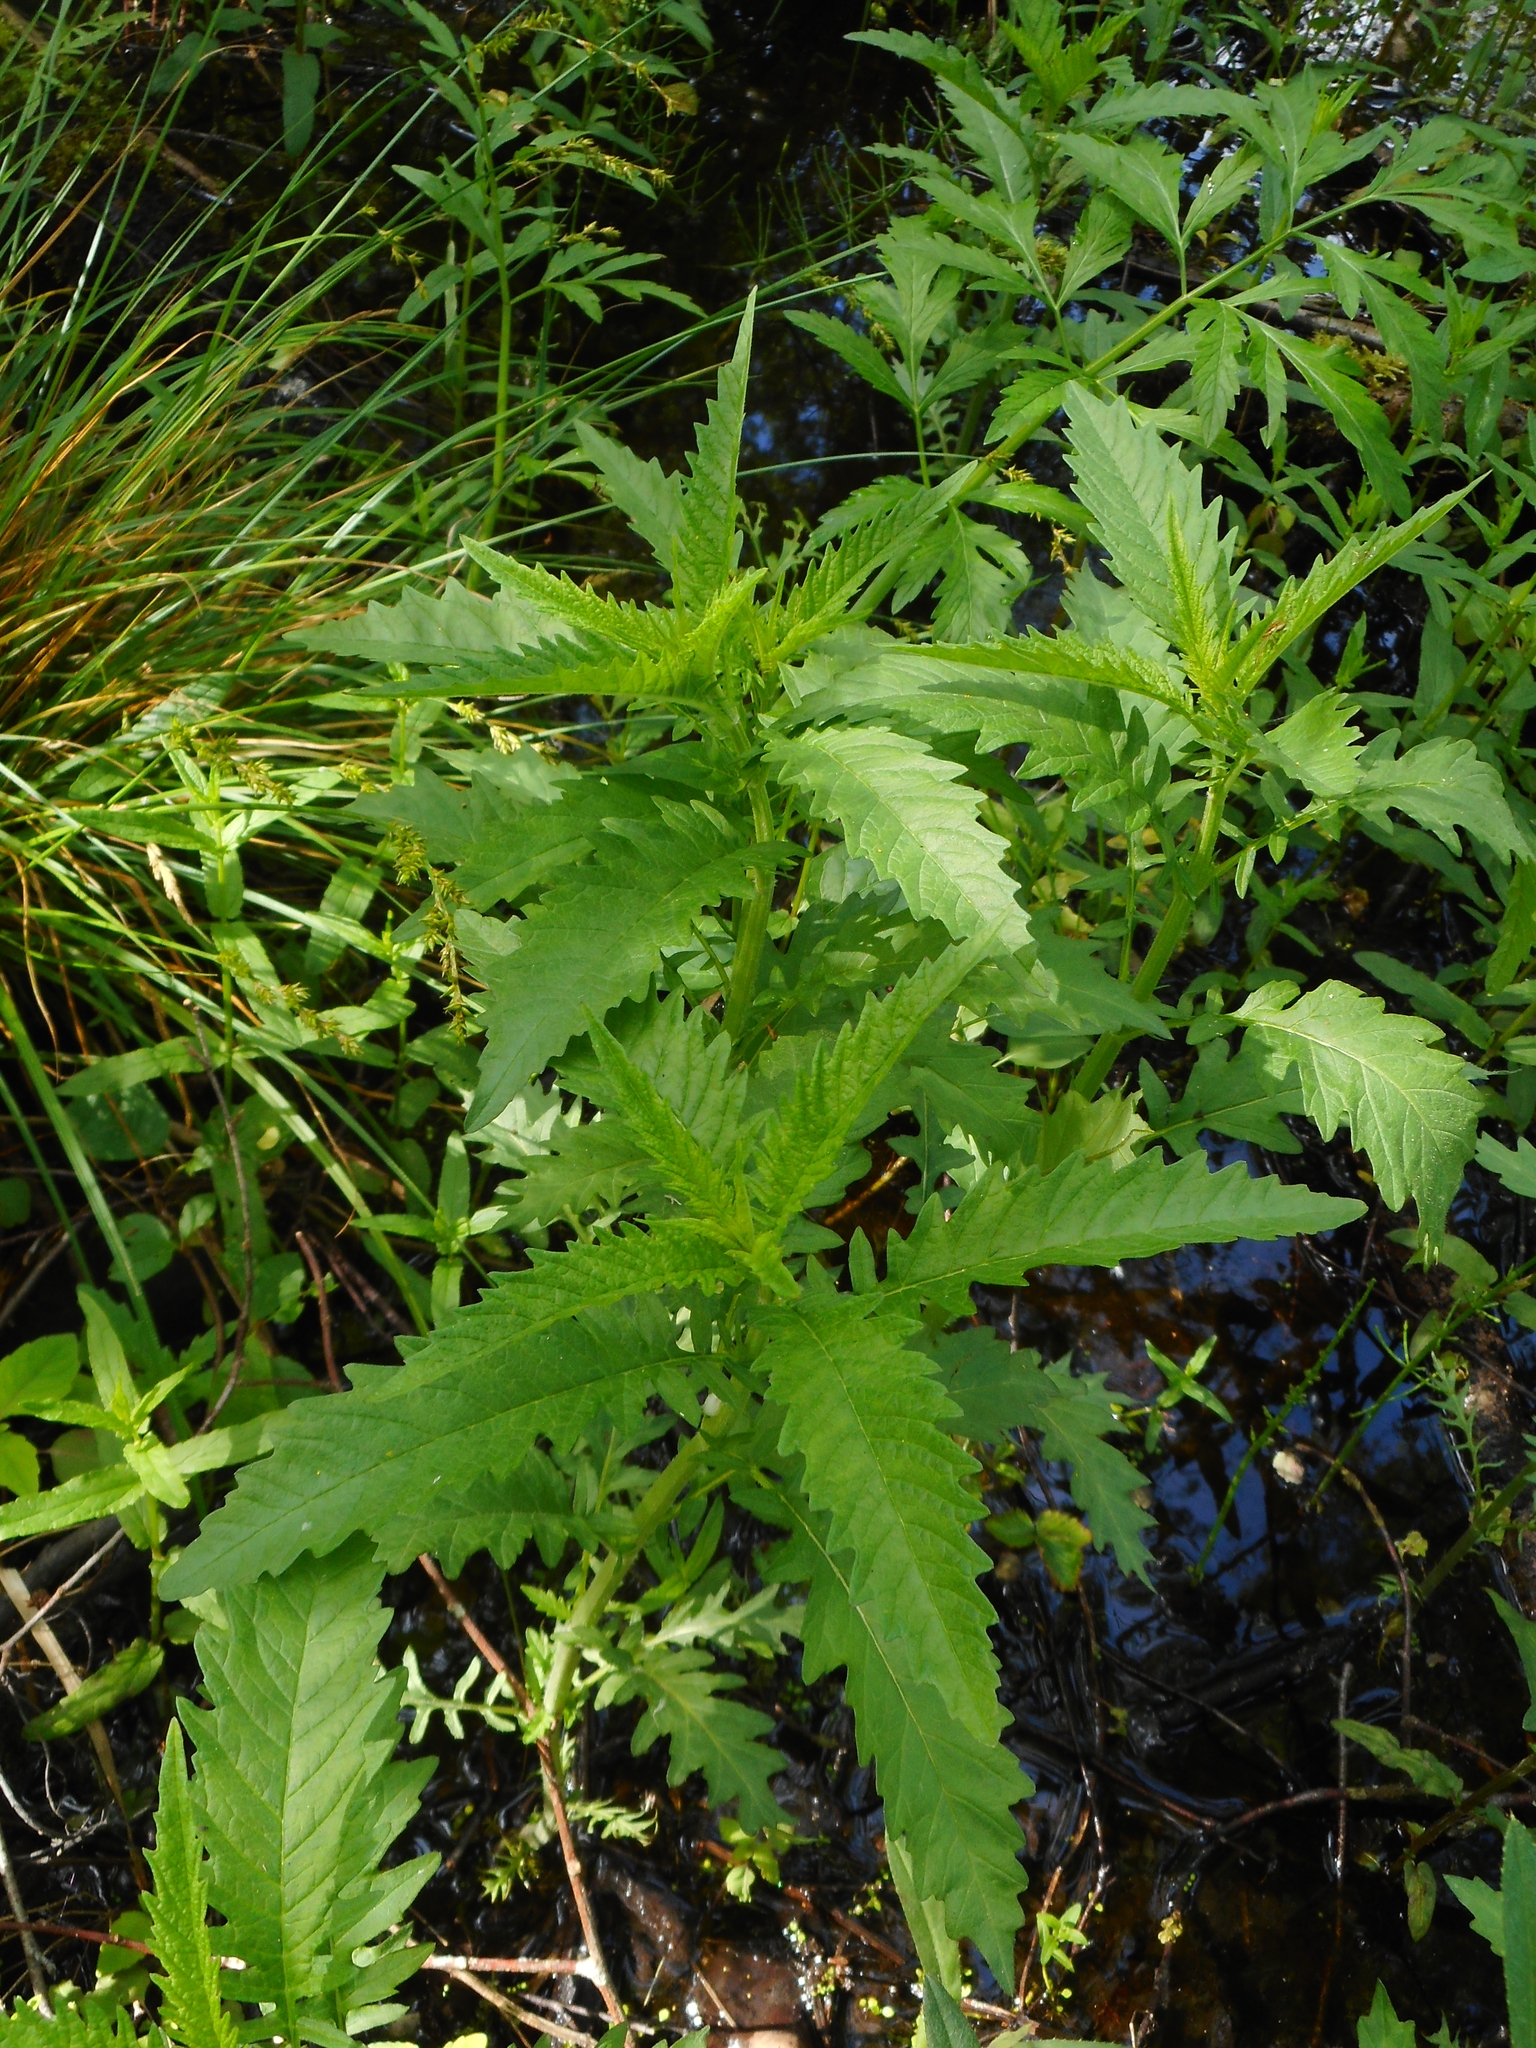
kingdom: Plantae
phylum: Tracheophyta
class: Magnoliopsida
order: Lamiales
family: Lamiaceae
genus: Lycopus
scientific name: Lycopus europaeus
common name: European bugleweed
